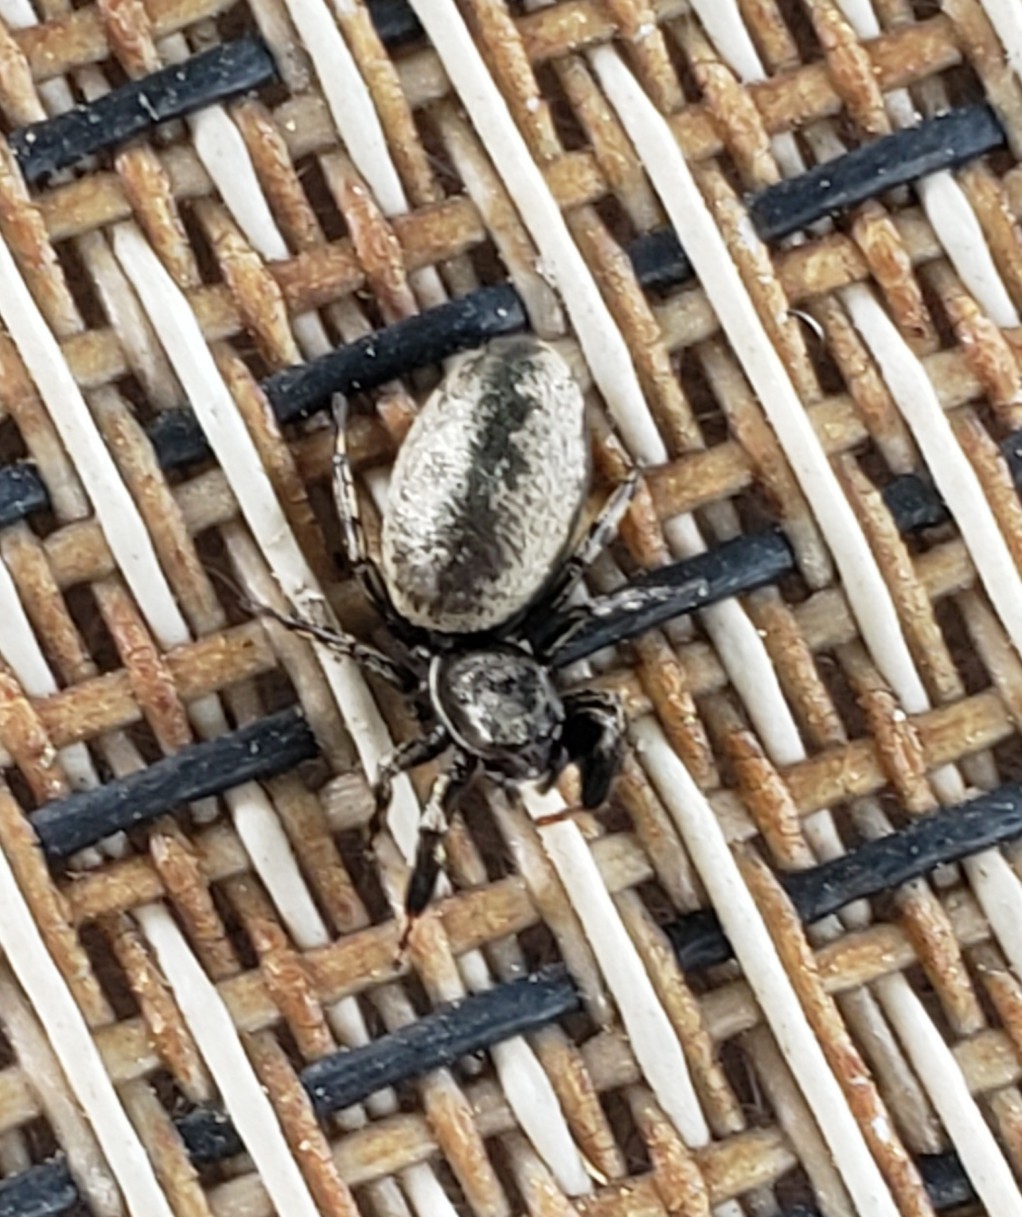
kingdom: Animalia
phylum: Arthropoda
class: Arachnida
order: Araneae
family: Salticidae
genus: Tutelina
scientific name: Tutelina harti
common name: Hart's jumping spider
